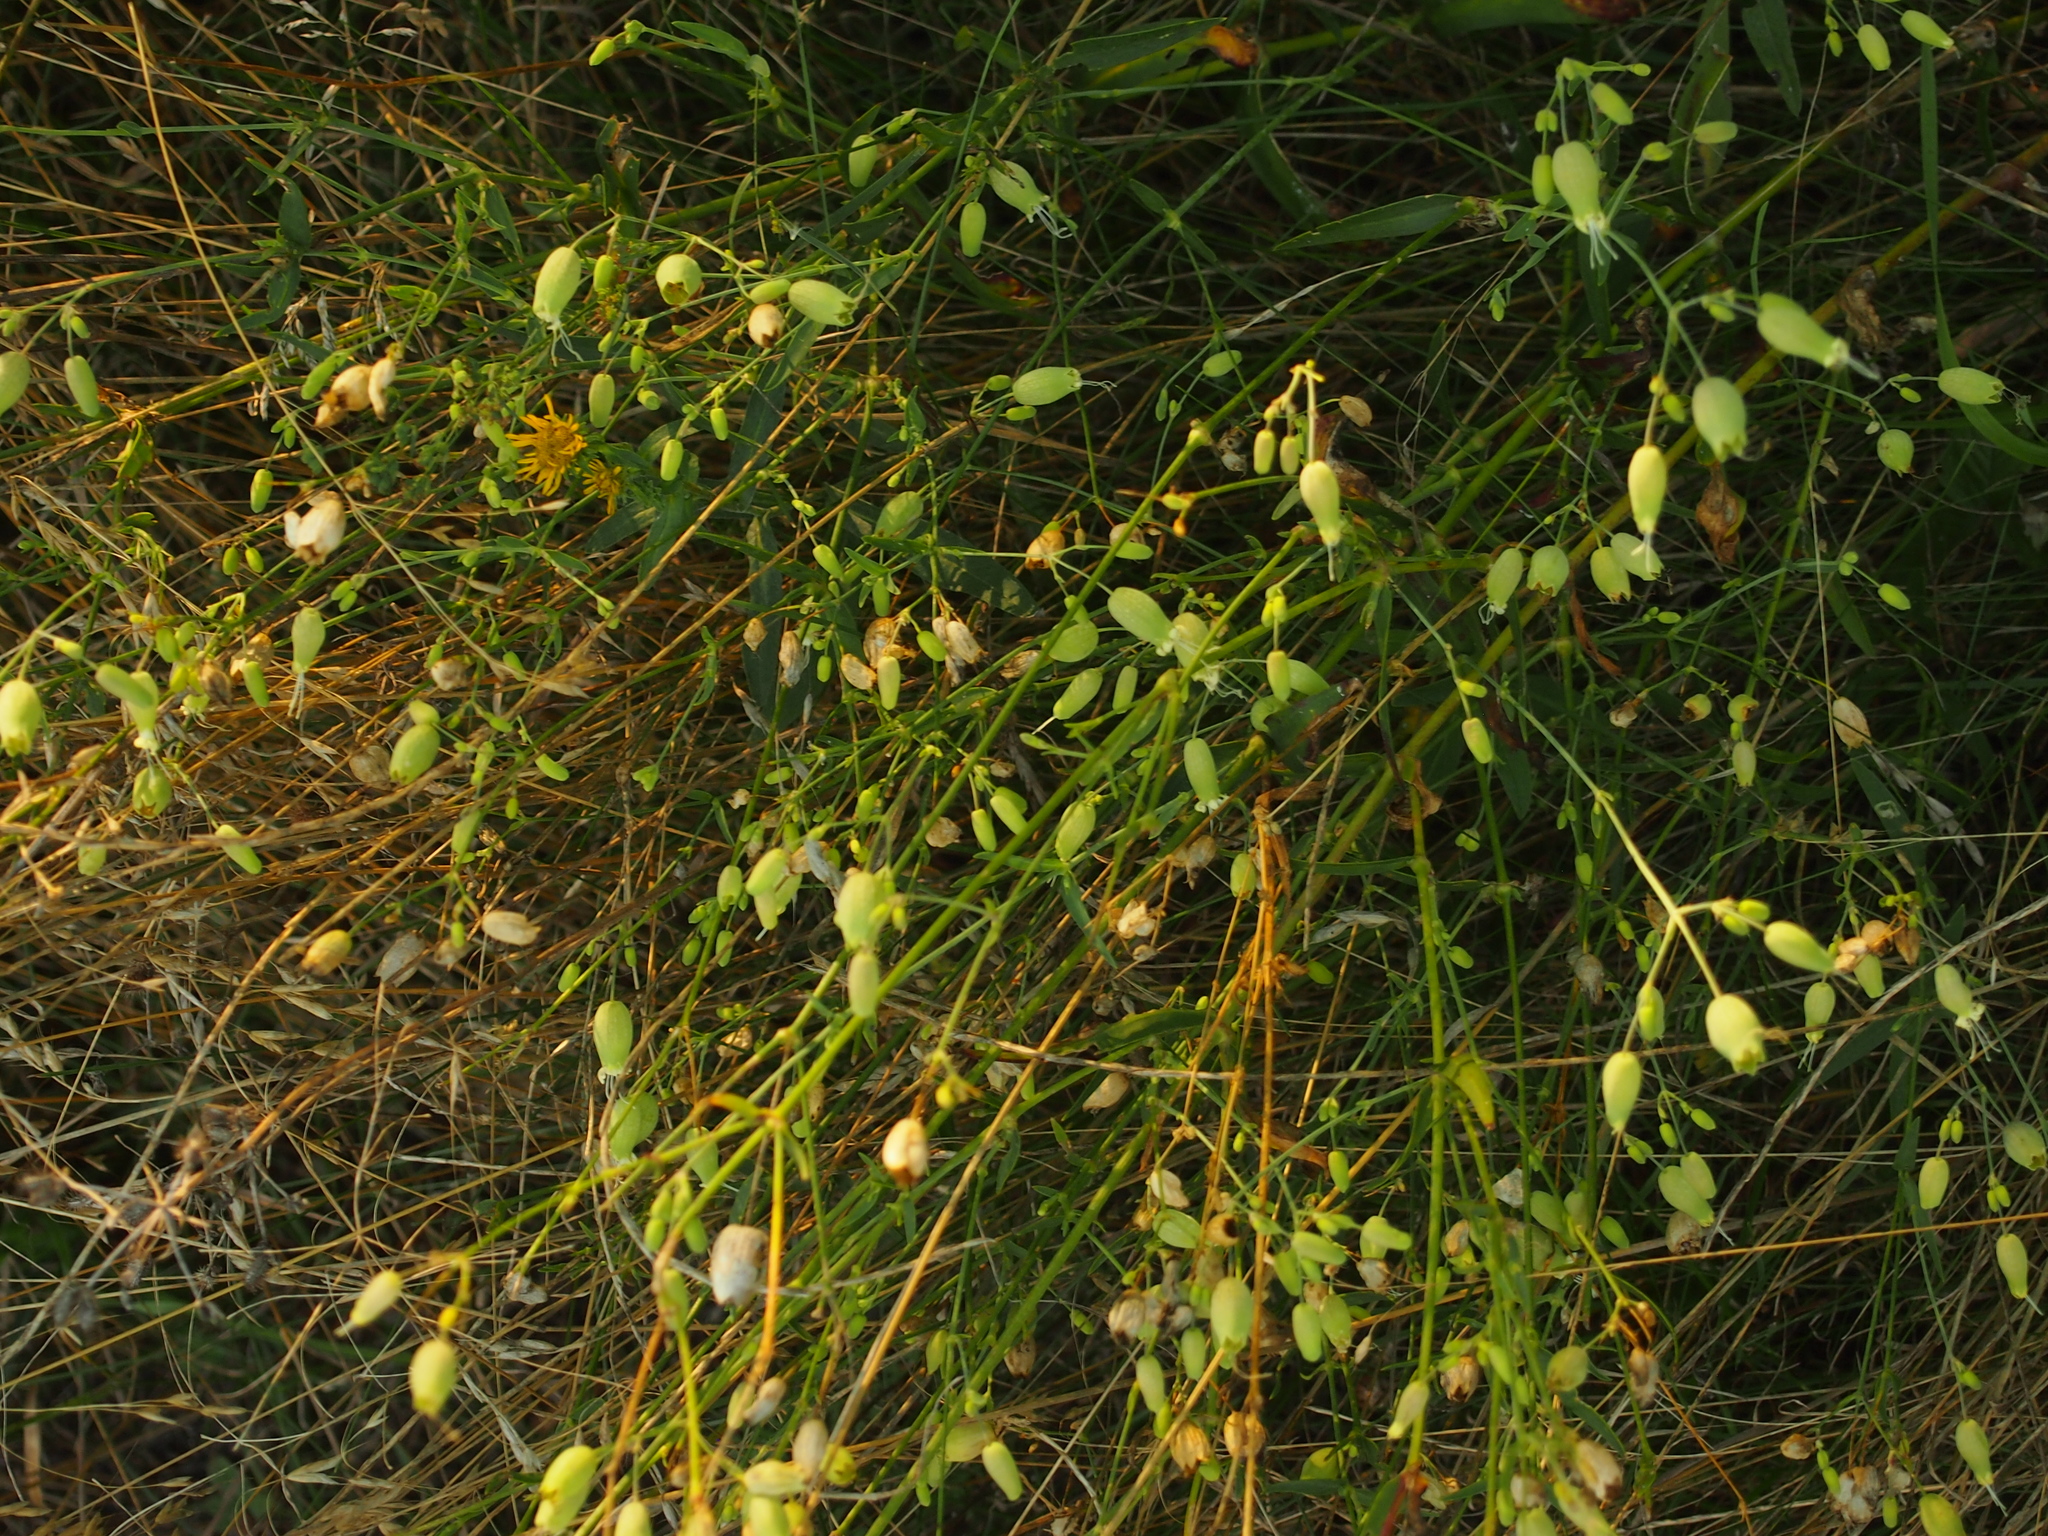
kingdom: Plantae
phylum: Tracheophyta
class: Magnoliopsida
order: Caryophyllales
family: Caryophyllaceae
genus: Silene
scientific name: Silene vulgaris
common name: Bladder campion
